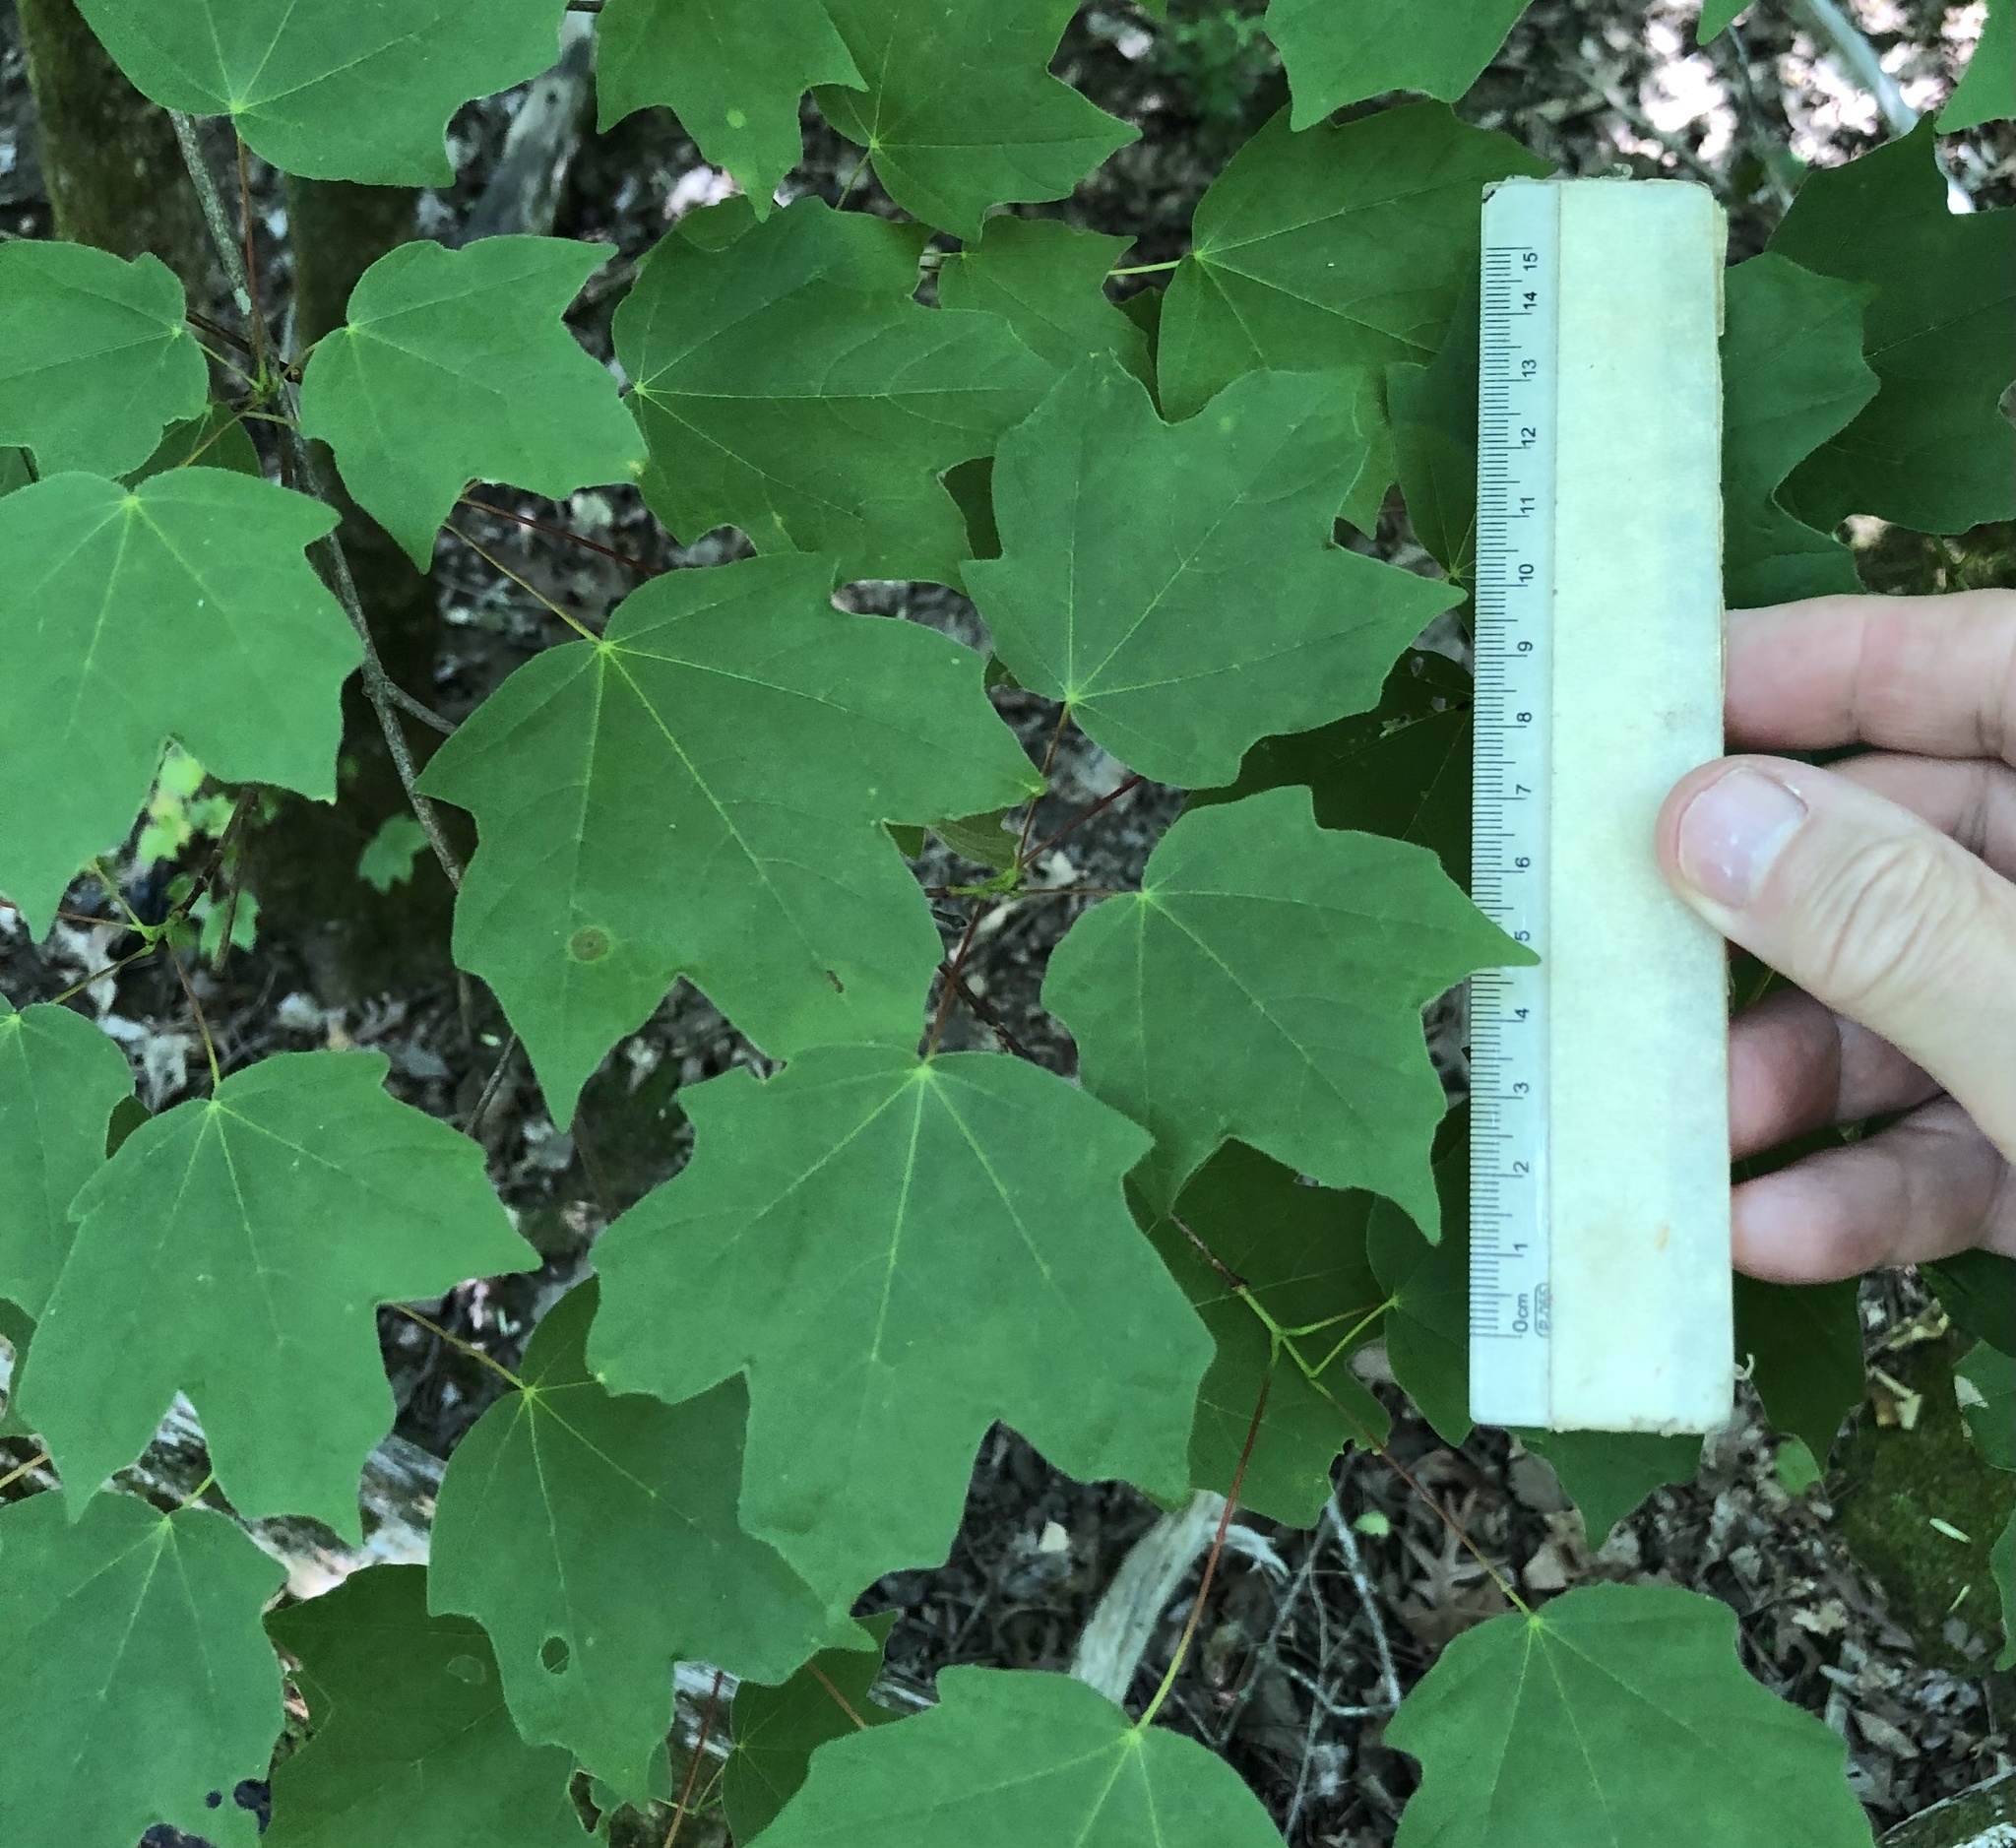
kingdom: Plantae
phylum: Tracheophyta
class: Magnoliopsida
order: Sapindales
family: Sapindaceae
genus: Acer
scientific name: Acer leucoderme
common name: Chalk maple
